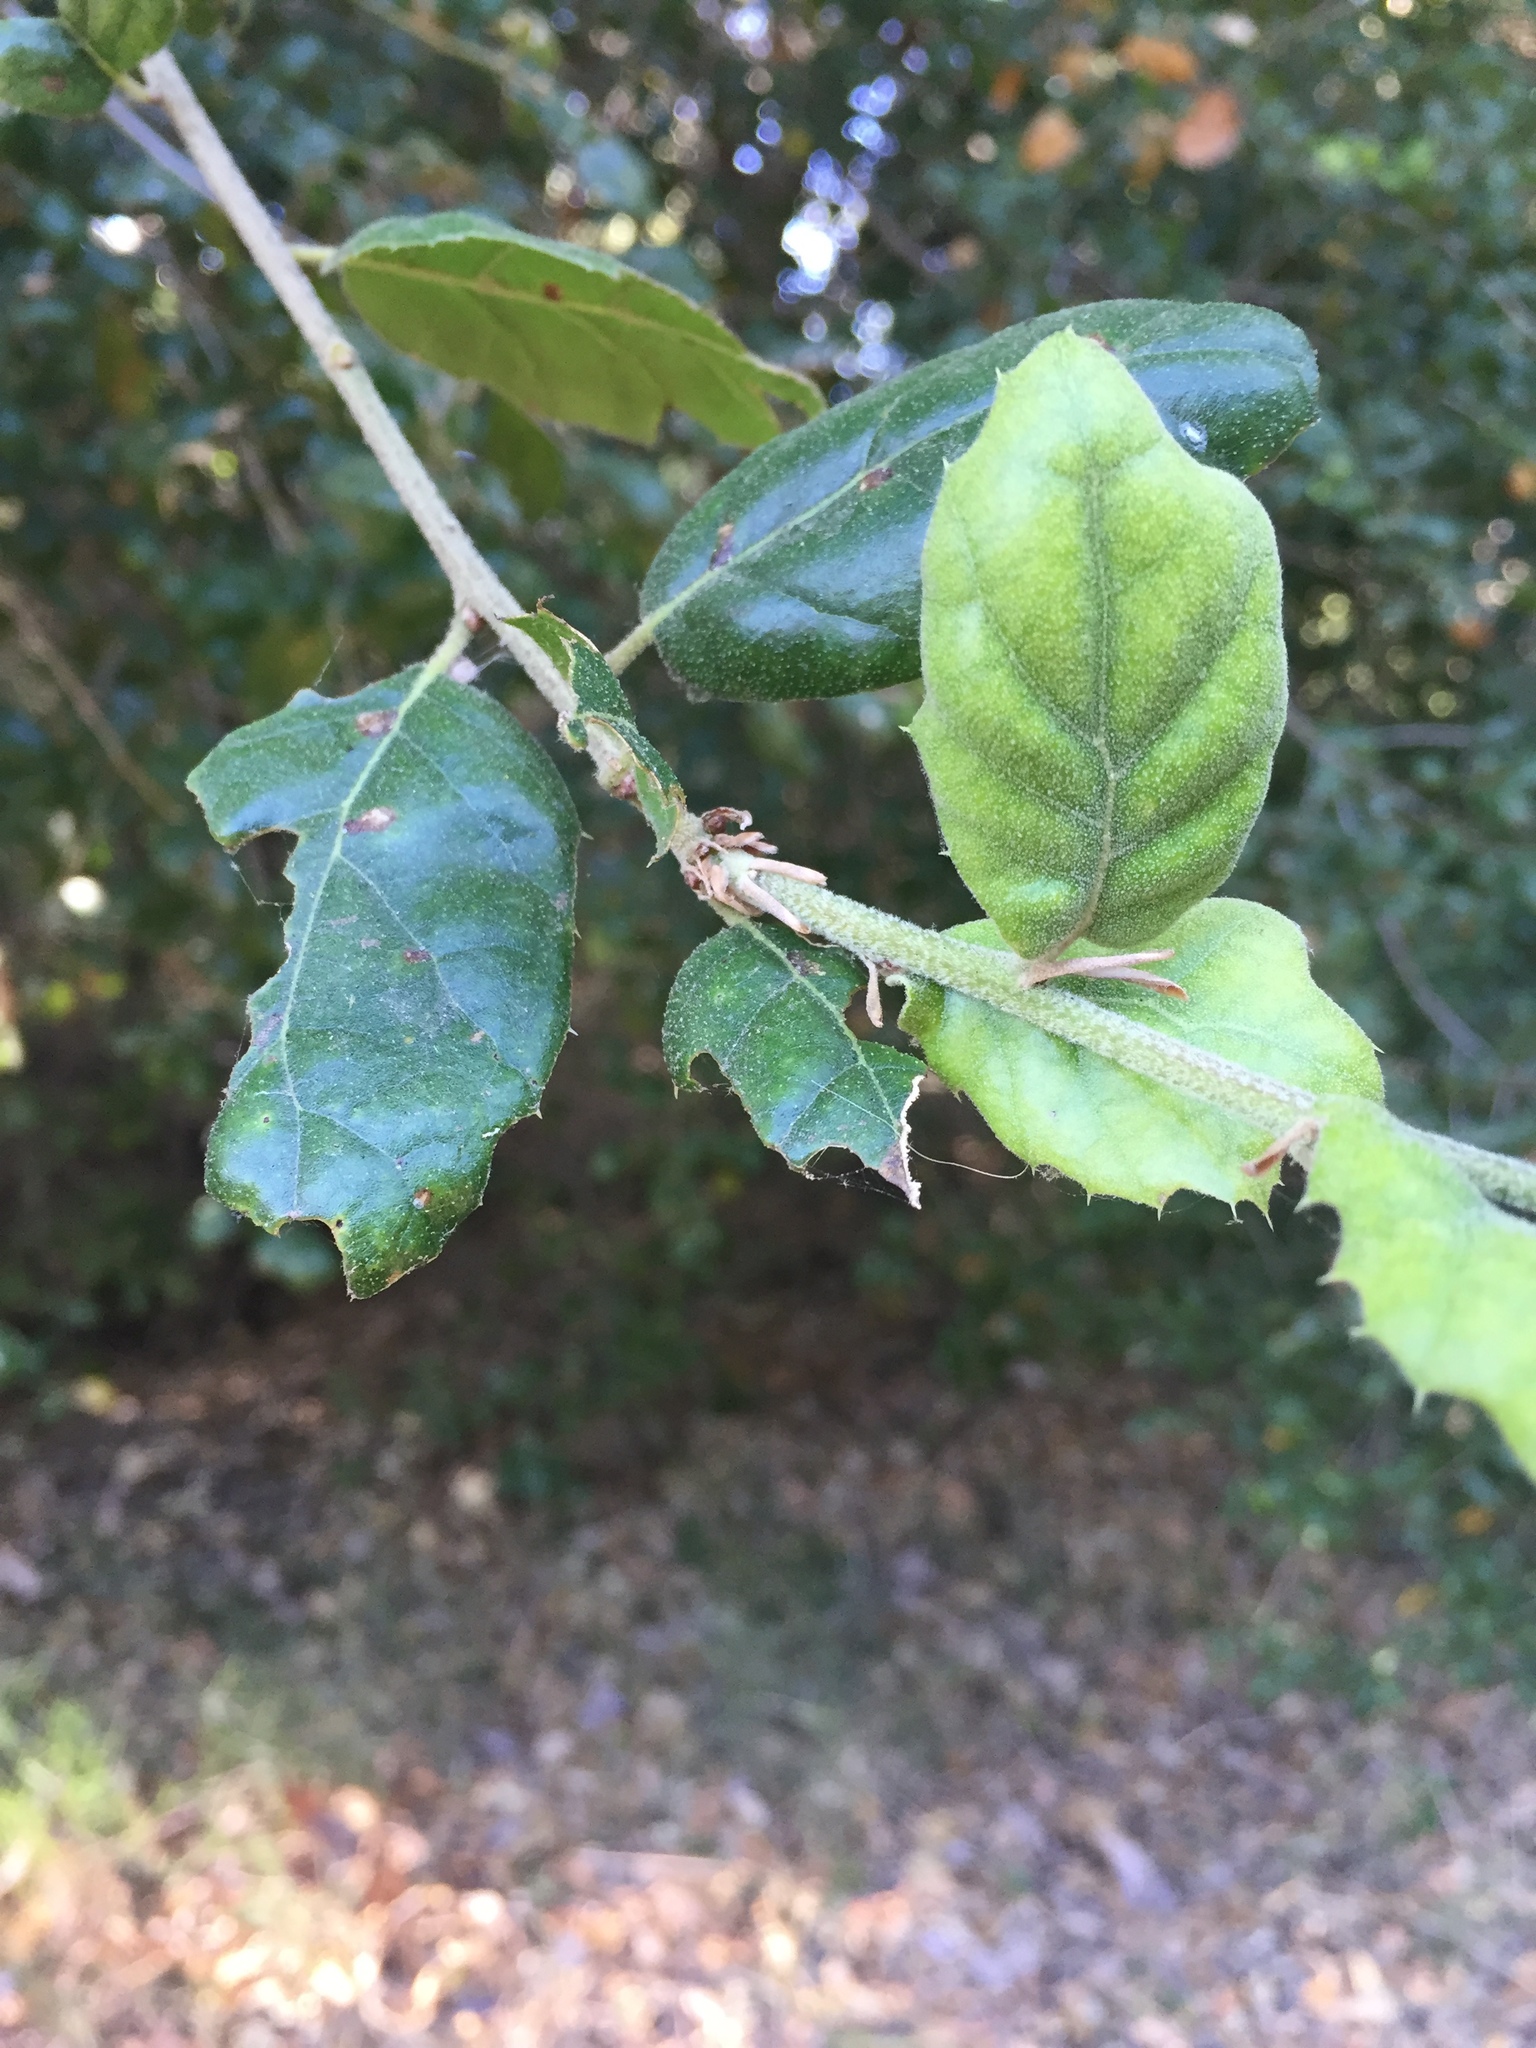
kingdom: Plantae
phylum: Tracheophyta
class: Magnoliopsida
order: Fagales
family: Fagaceae
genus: Quercus
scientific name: Quercus agrifolia
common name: California live oak
